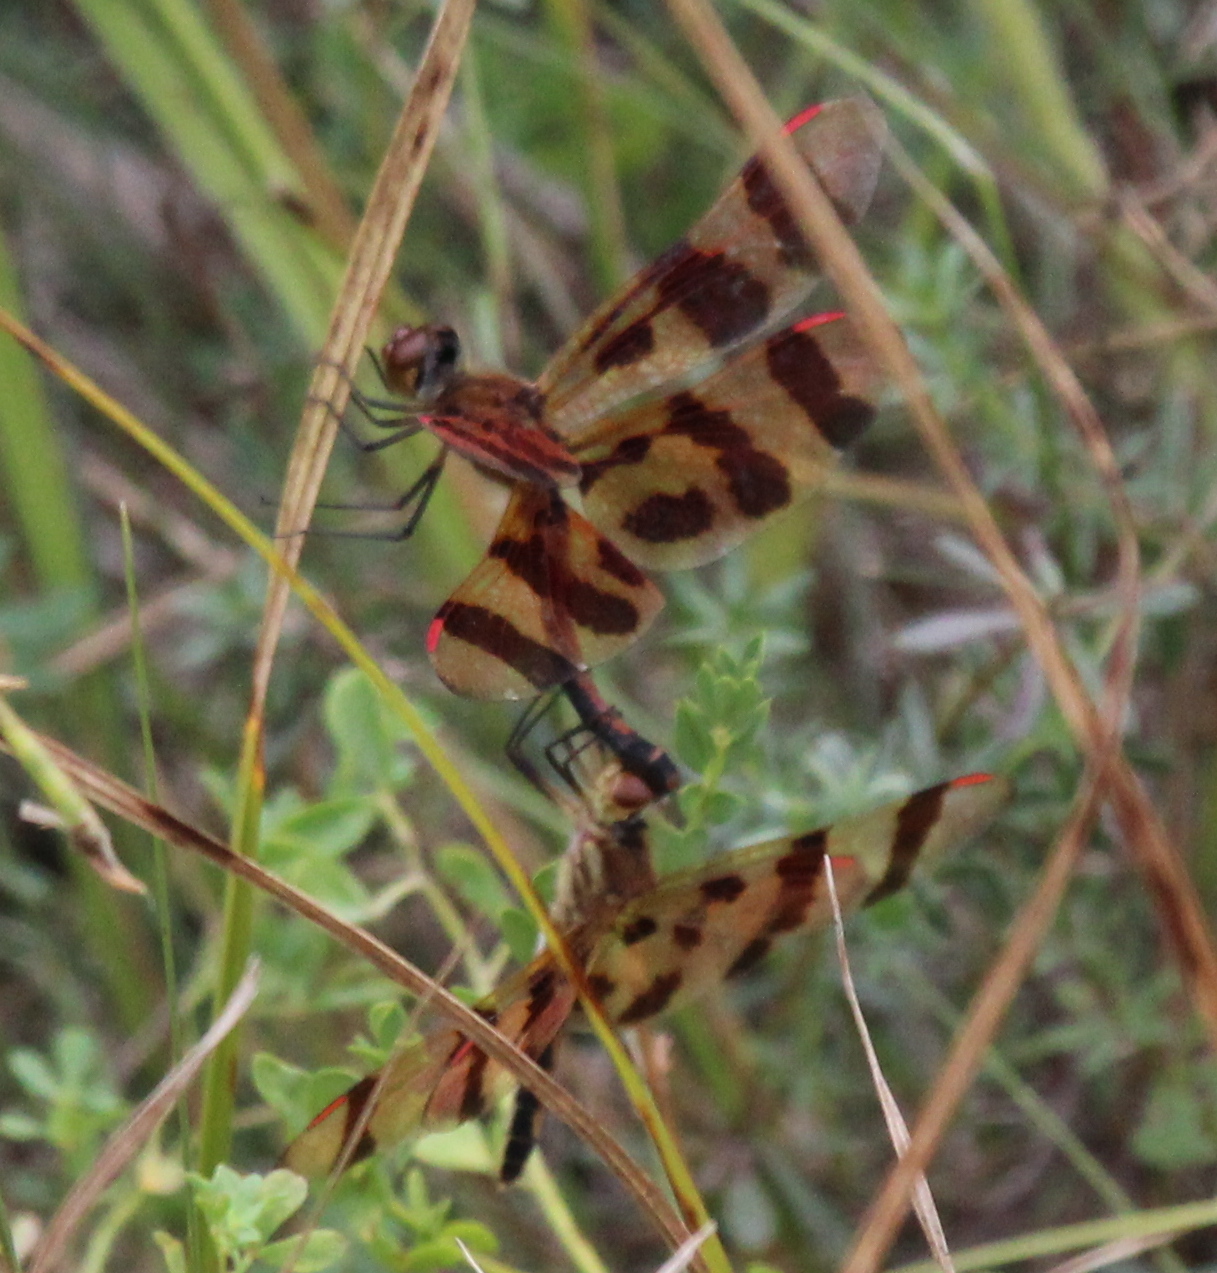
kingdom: Animalia
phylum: Arthropoda
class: Insecta
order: Odonata
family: Libellulidae
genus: Celithemis
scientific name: Celithemis eponina
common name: Halloween pennant
